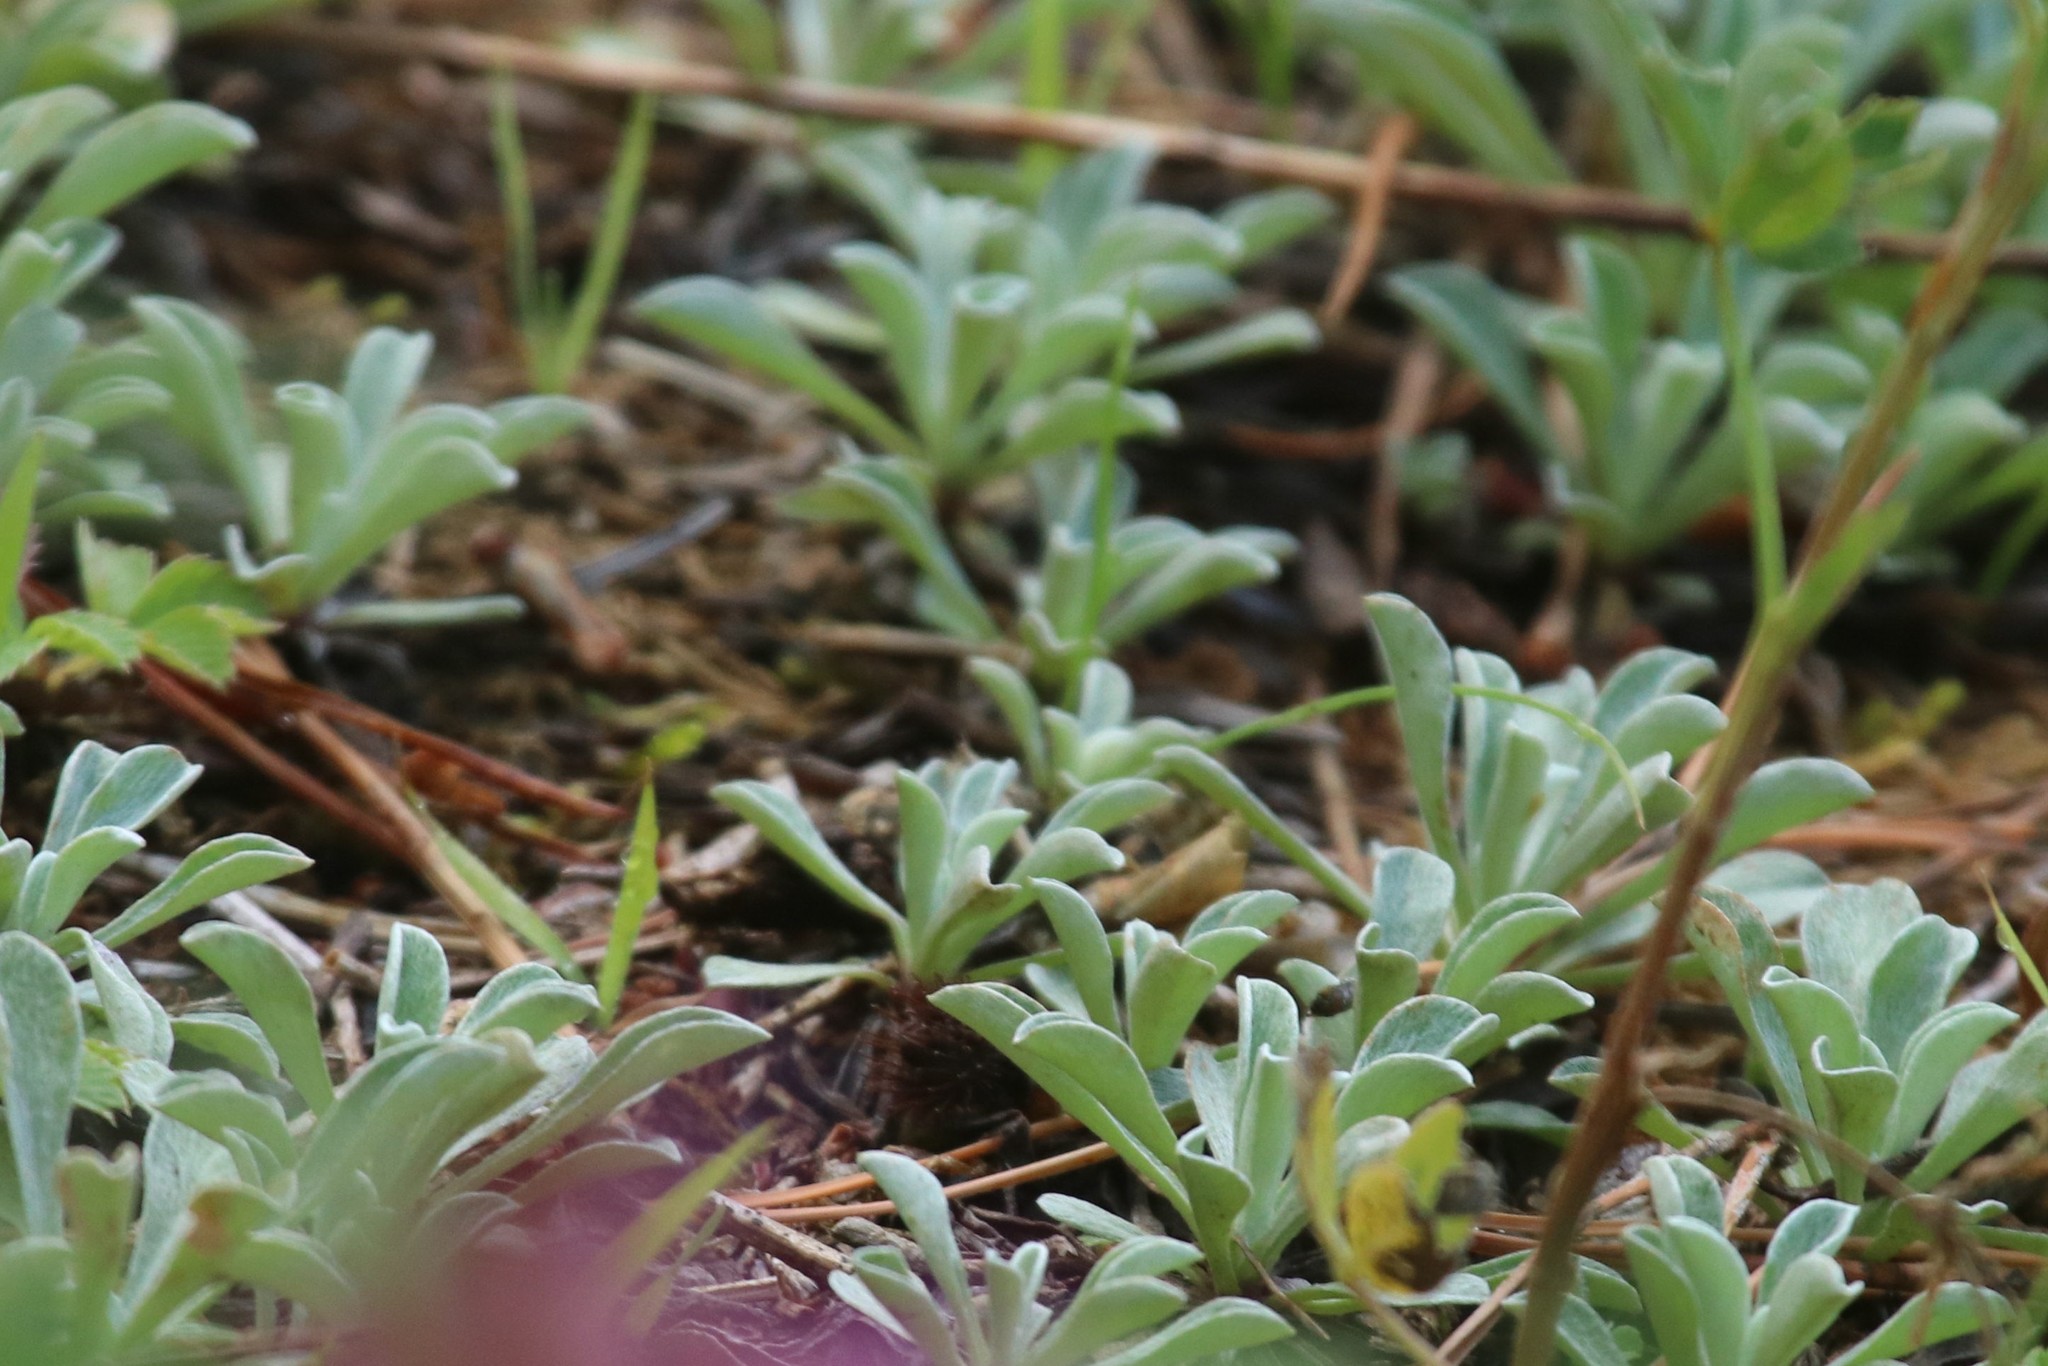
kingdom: Plantae
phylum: Tracheophyta
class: Magnoliopsida
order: Asterales
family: Asteraceae
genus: Antennaria
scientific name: Antennaria dioica
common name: Mountain everlasting
